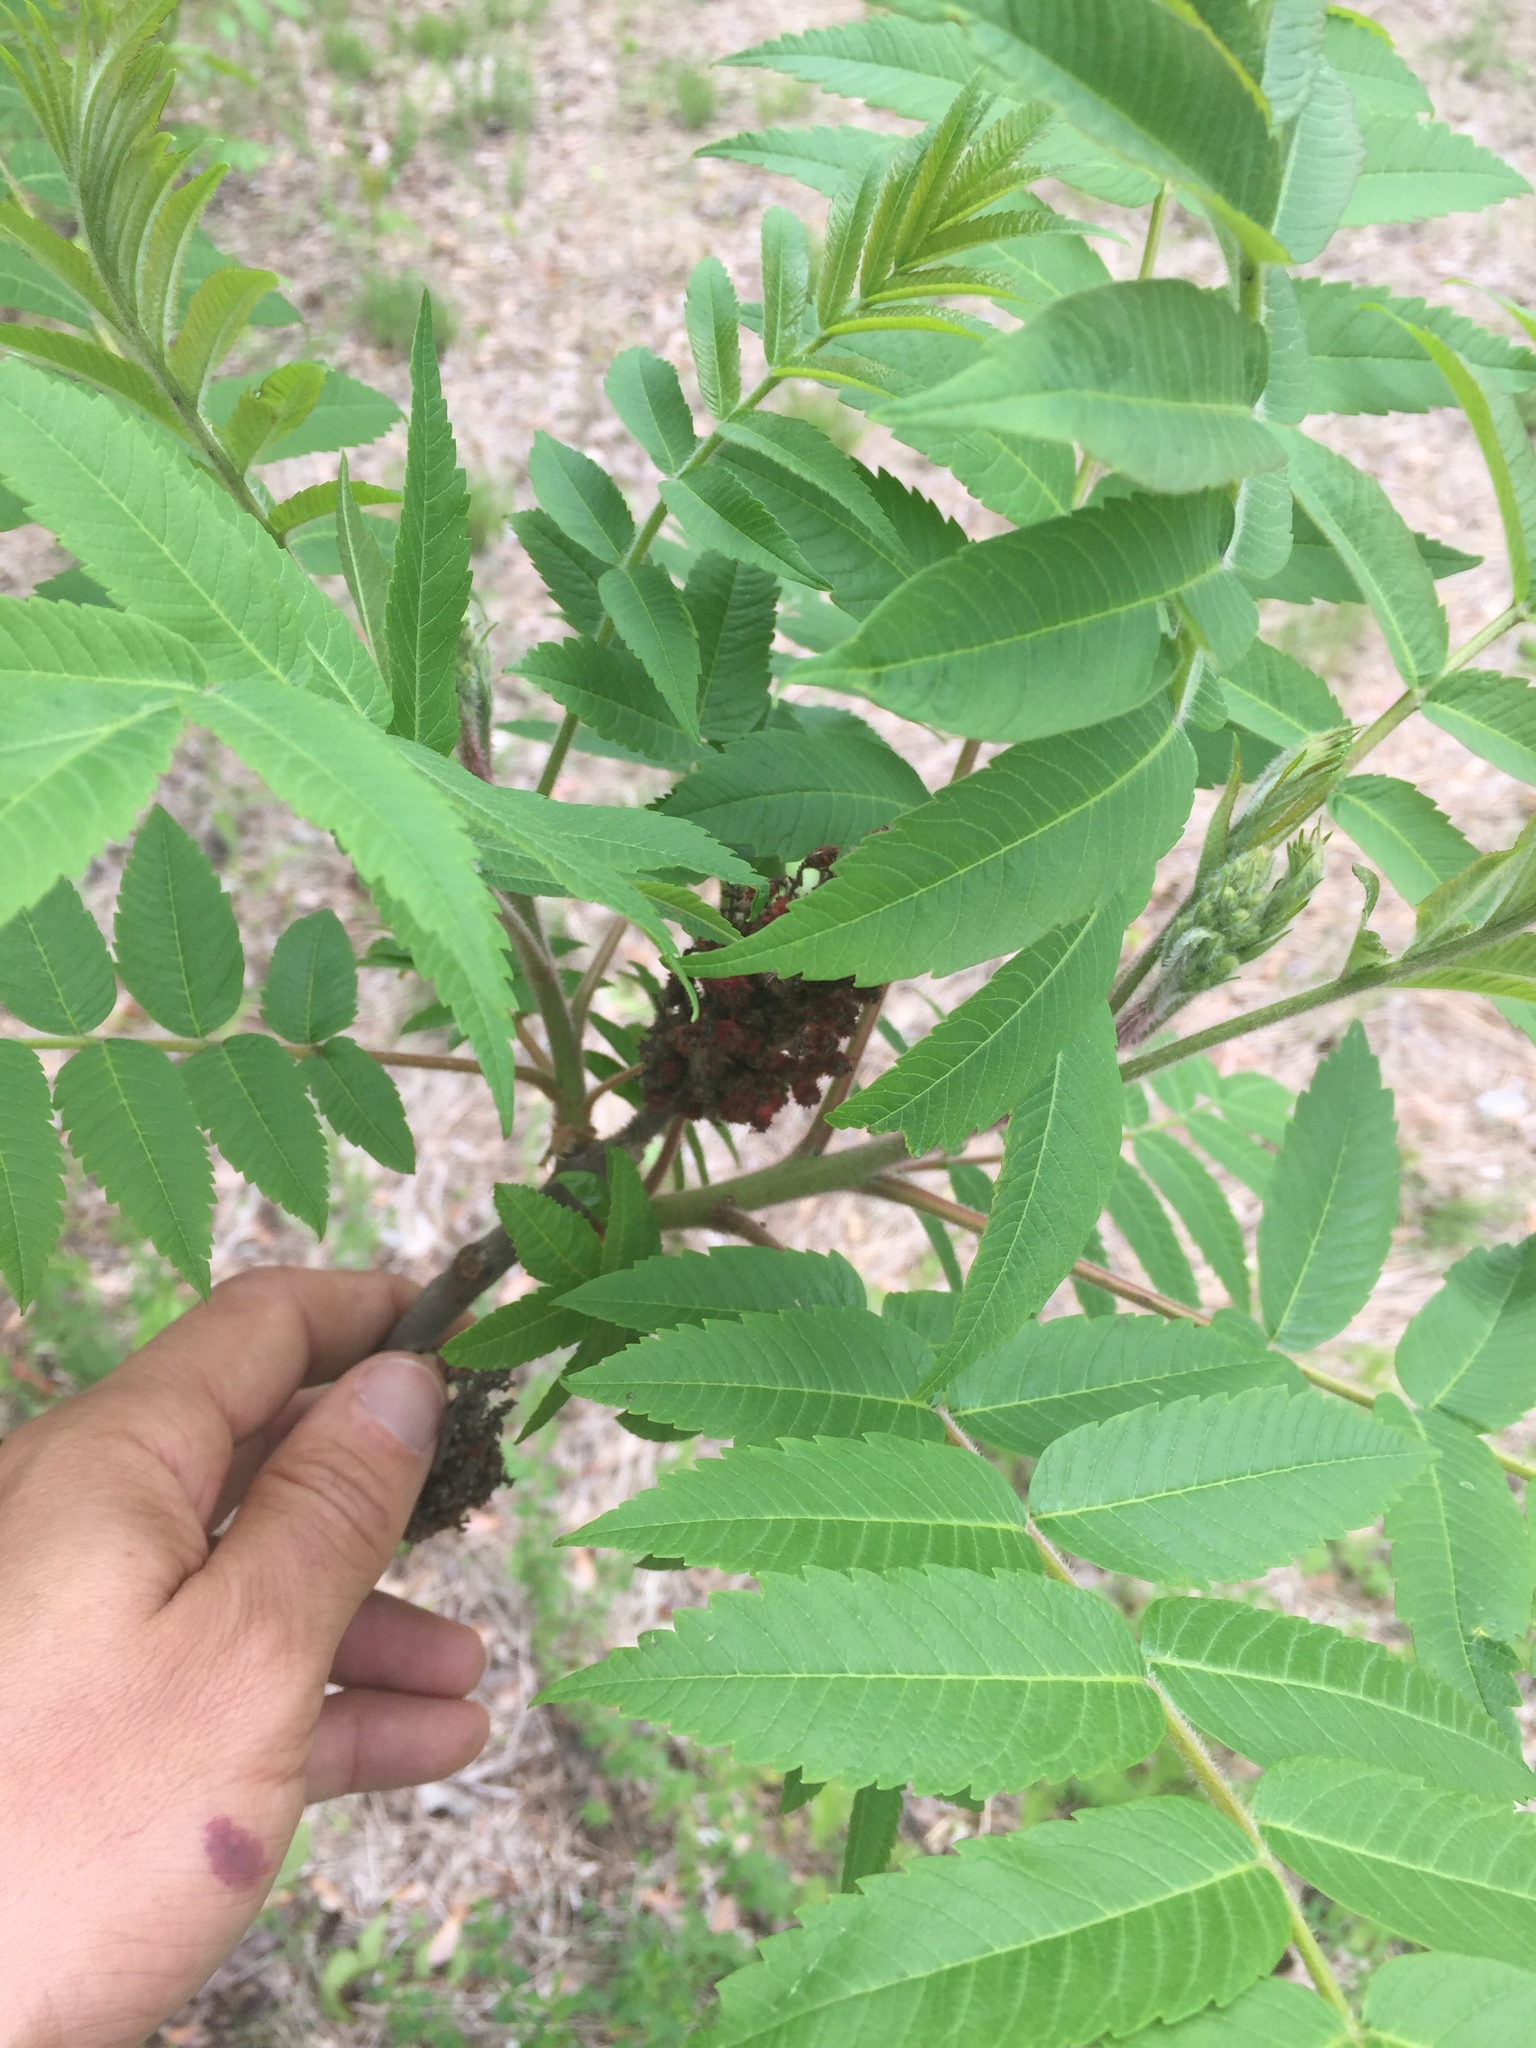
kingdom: Plantae
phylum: Tracheophyta
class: Magnoliopsida
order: Sapindales
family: Anacardiaceae
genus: Rhus
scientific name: Rhus typhina
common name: Staghorn sumac
